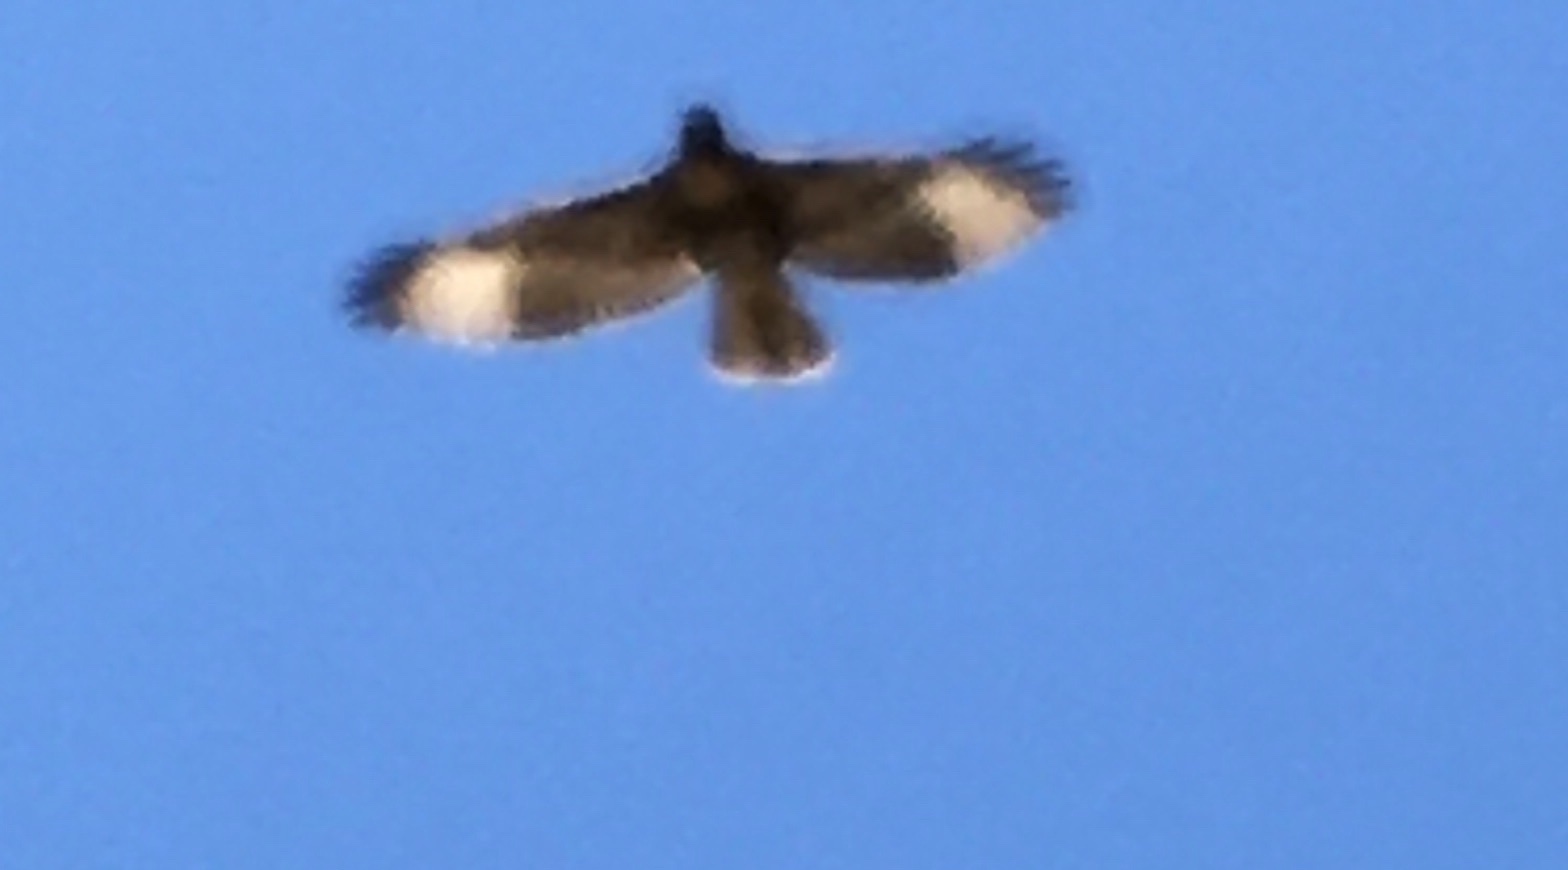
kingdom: Animalia
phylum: Chordata
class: Aves
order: Accipitriformes
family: Accipitridae
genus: Buteo
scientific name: Buteo jamaicensis
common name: Red-tailed hawk
